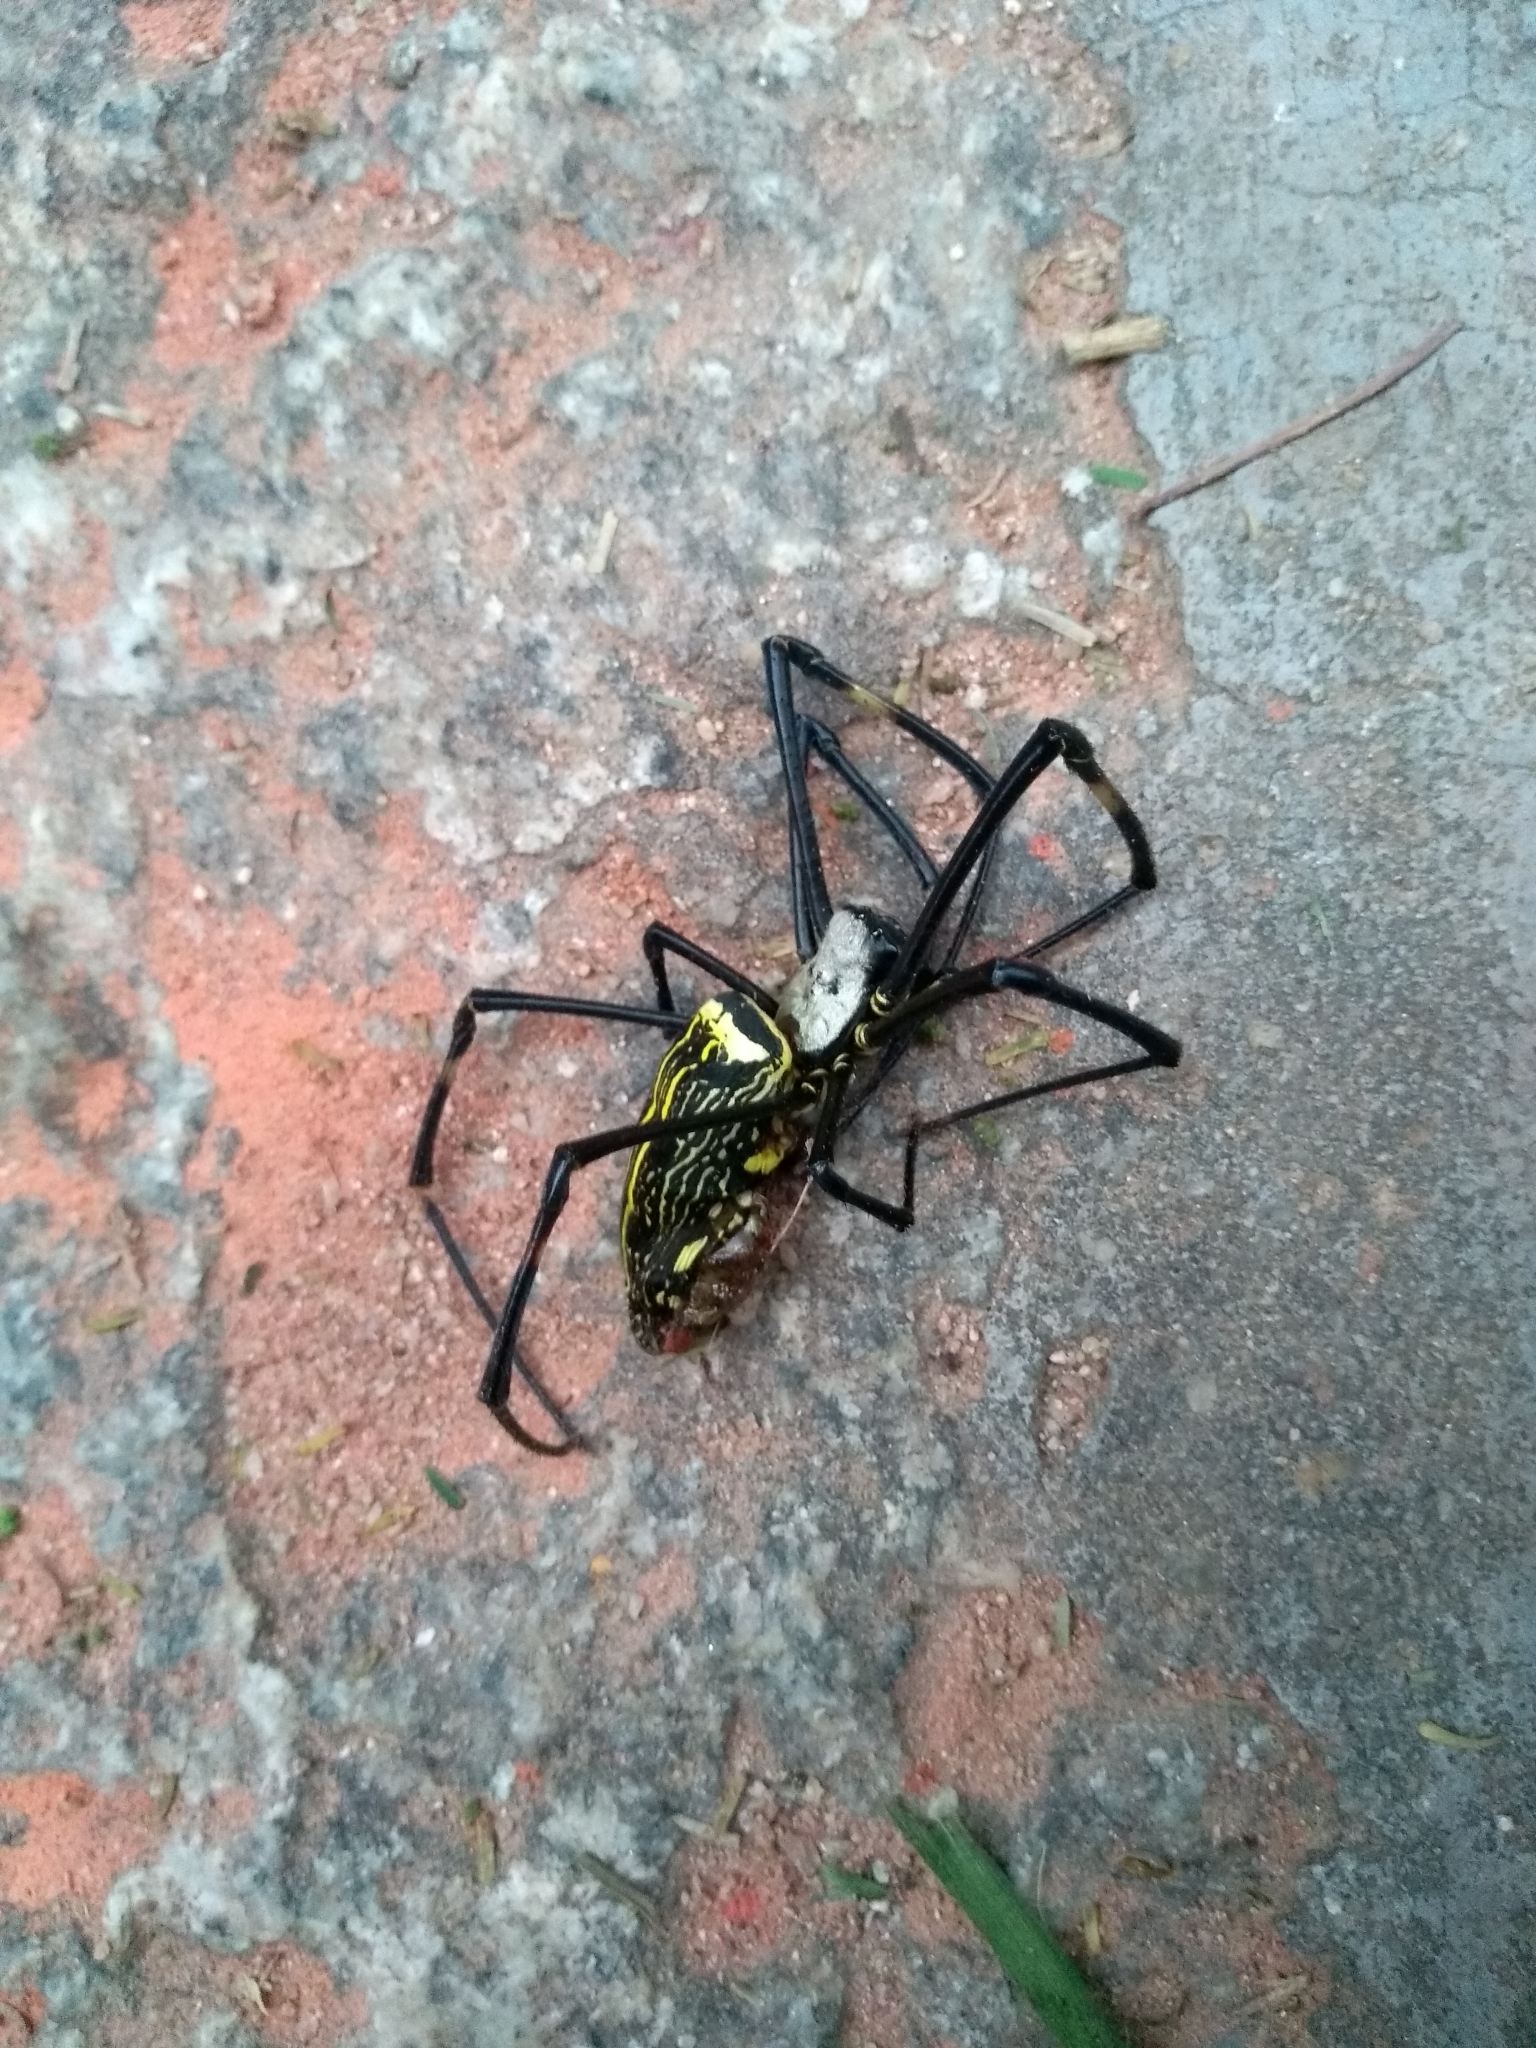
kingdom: Animalia
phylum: Arthropoda
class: Arachnida
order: Araneae
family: Araneidae
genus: Nephila
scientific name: Nephila pilipes
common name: Giant golden orb weaver
